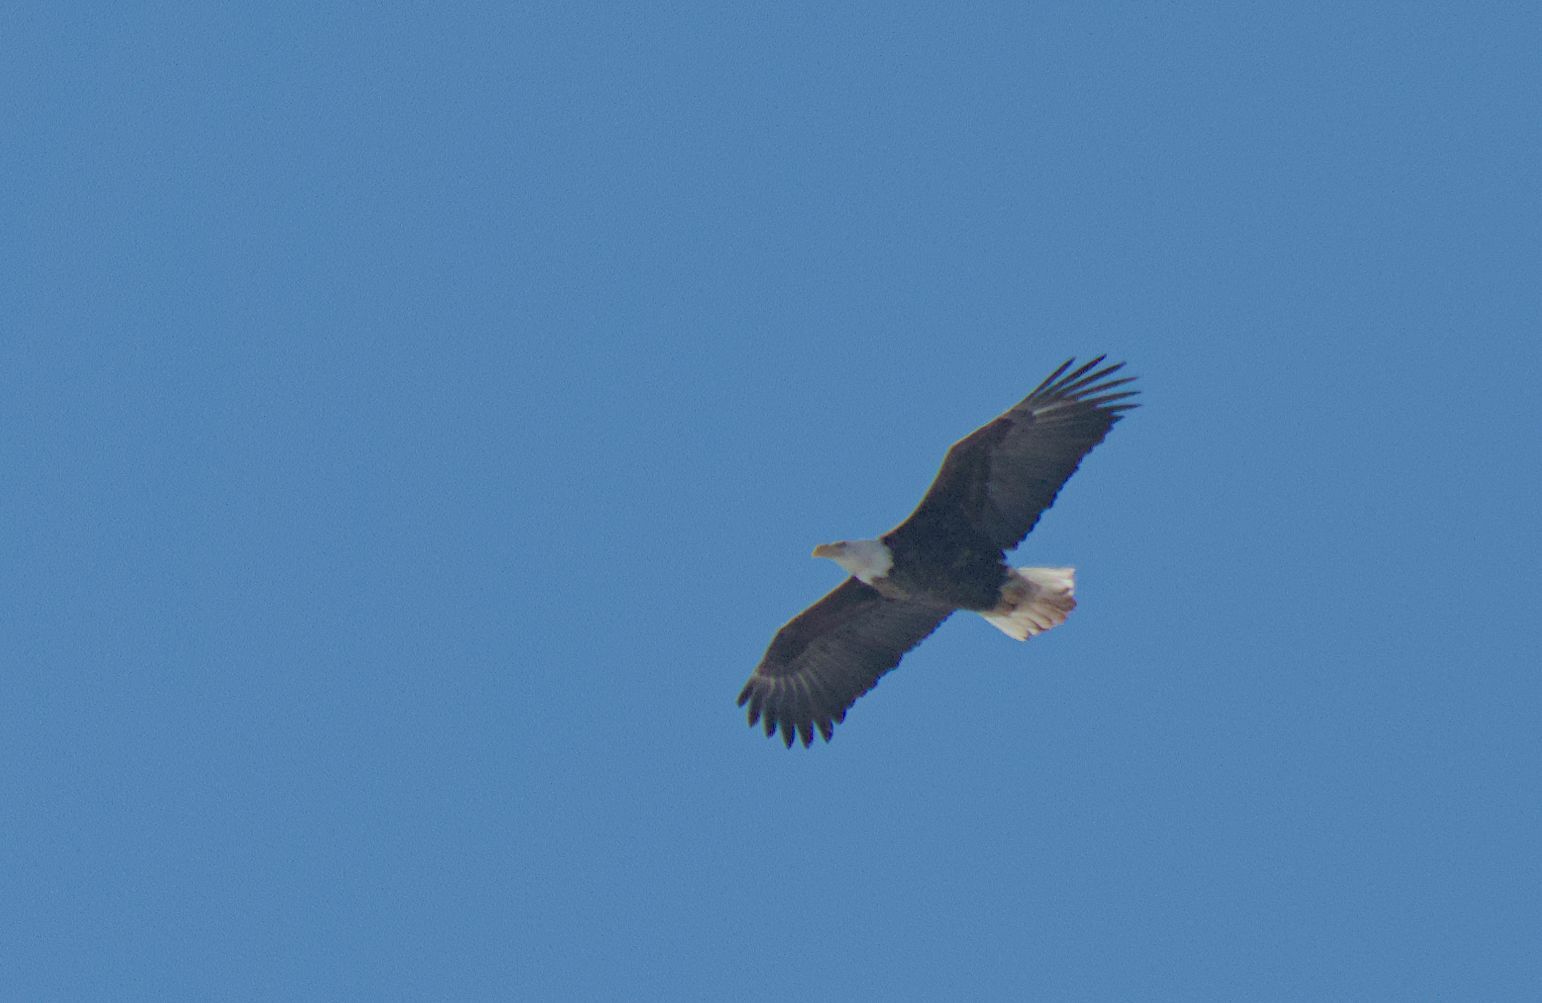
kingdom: Animalia
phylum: Chordata
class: Aves
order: Accipitriformes
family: Accipitridae
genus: Haliaeetus
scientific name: Haliaeetus leucocephalus
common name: Bald eagle
